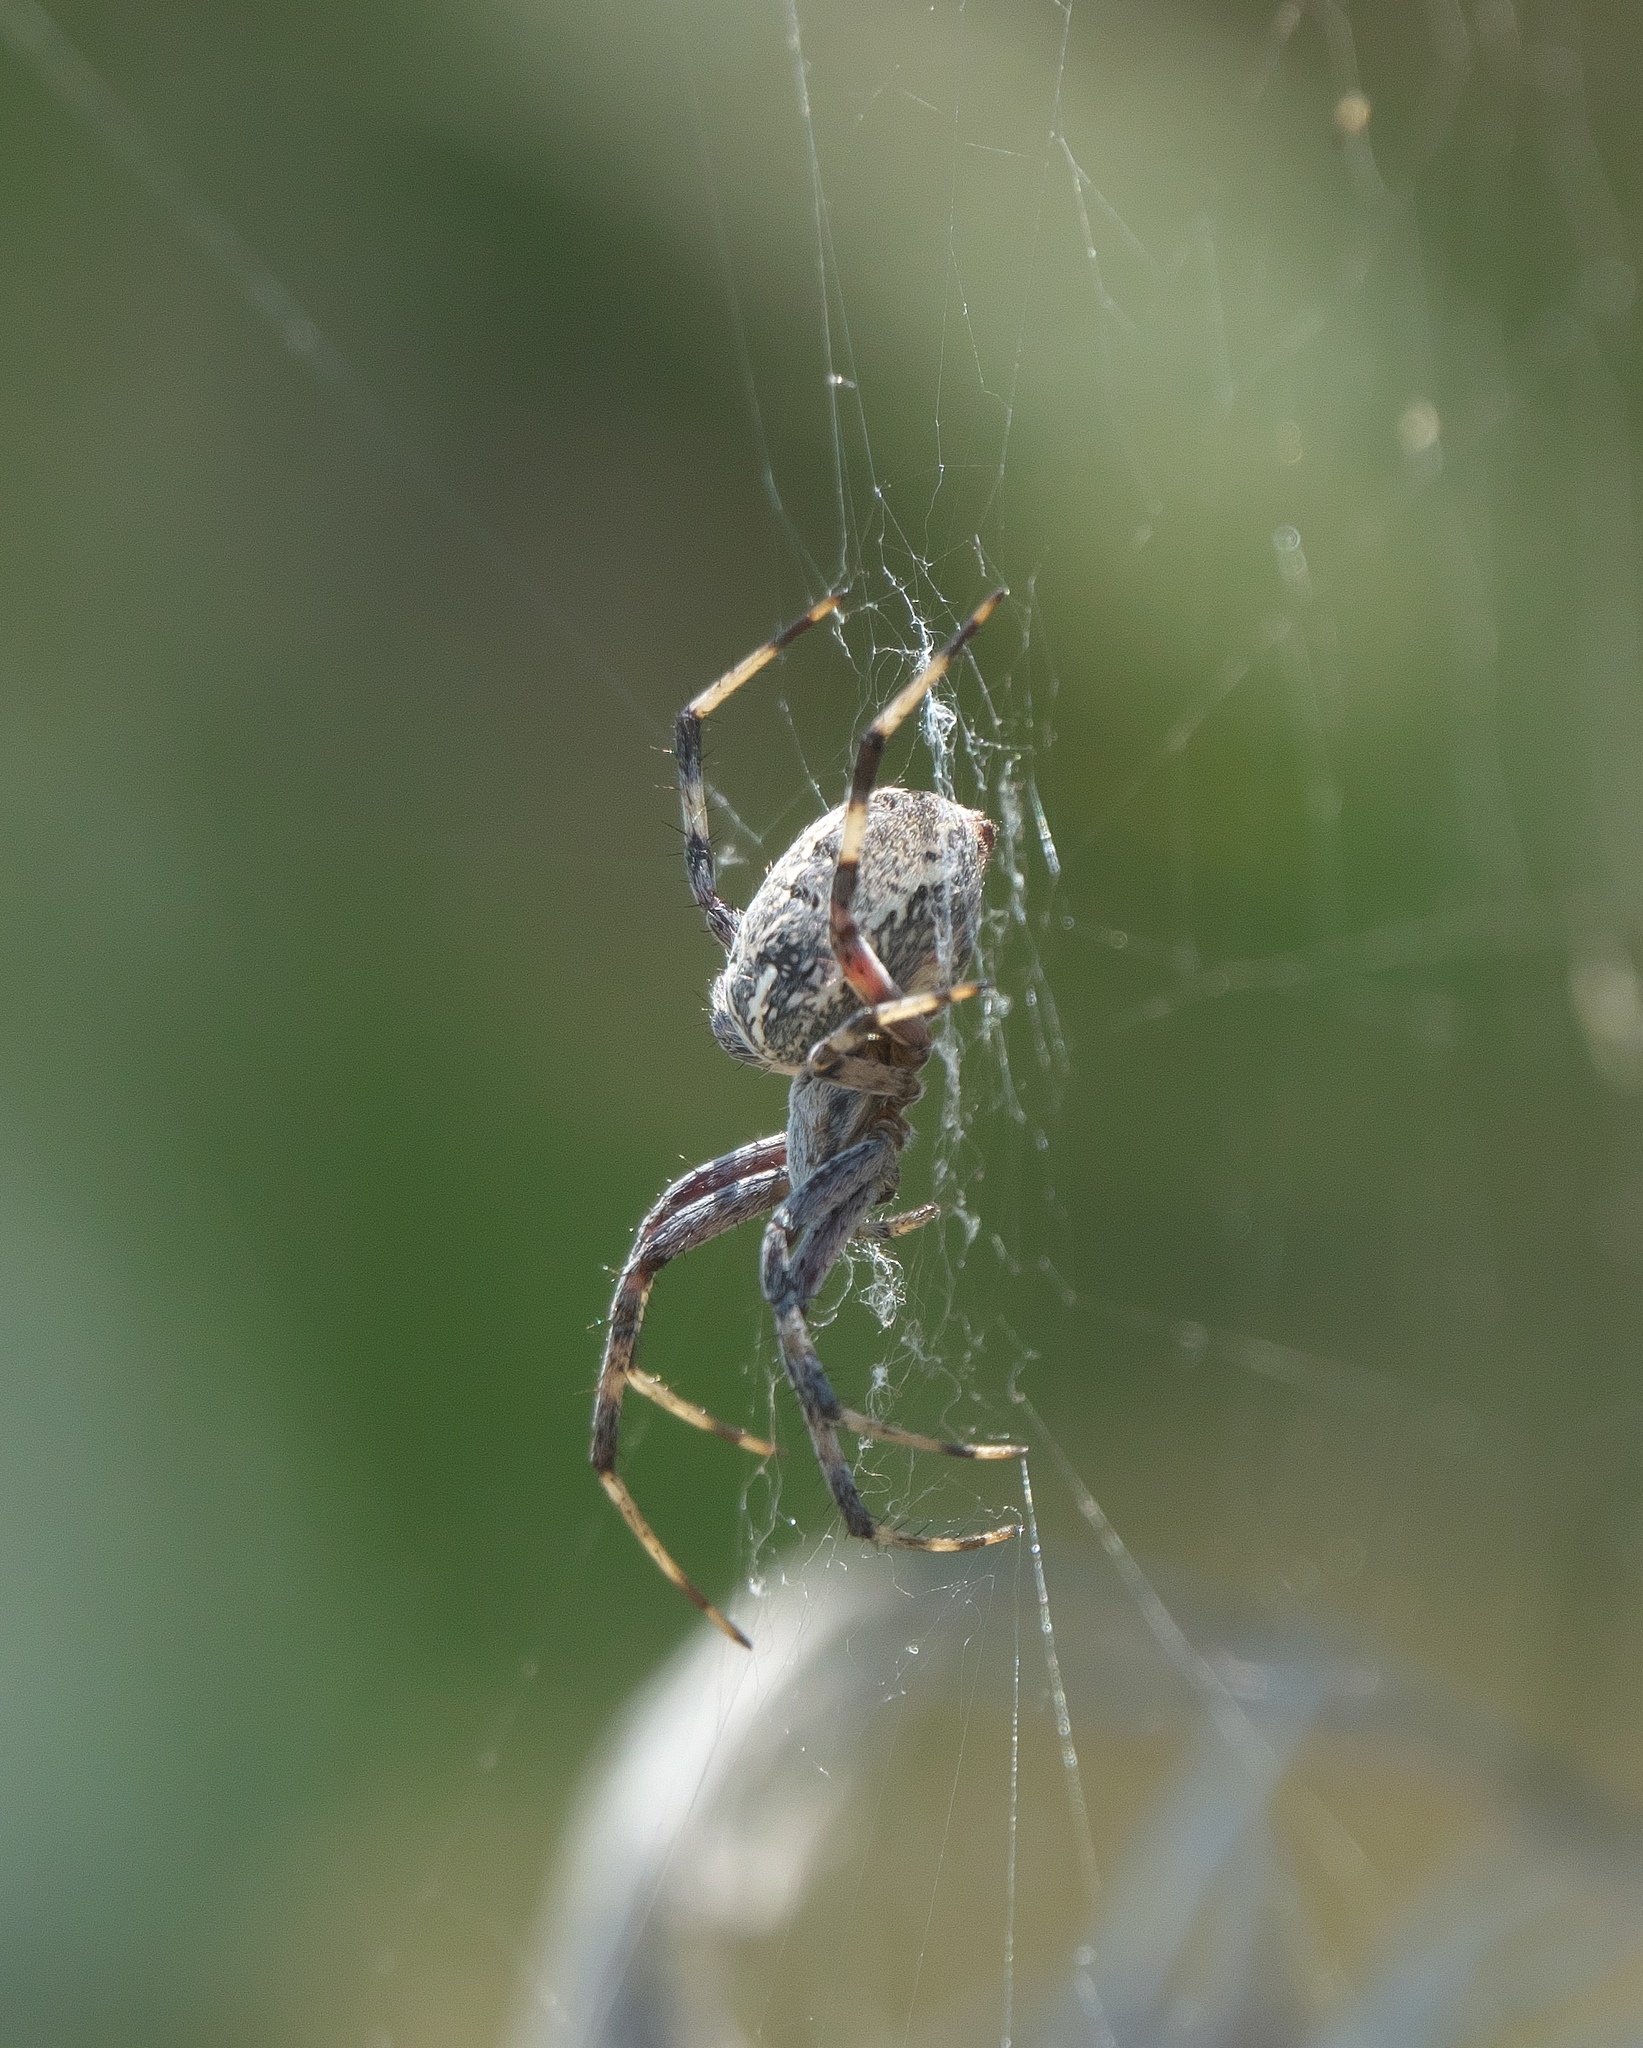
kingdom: Animalia
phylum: Arthropoda
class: Arachnida
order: Araneae
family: Araneidae
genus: Neoscona
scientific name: Neoscona oaxacensis
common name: Orb weavers
